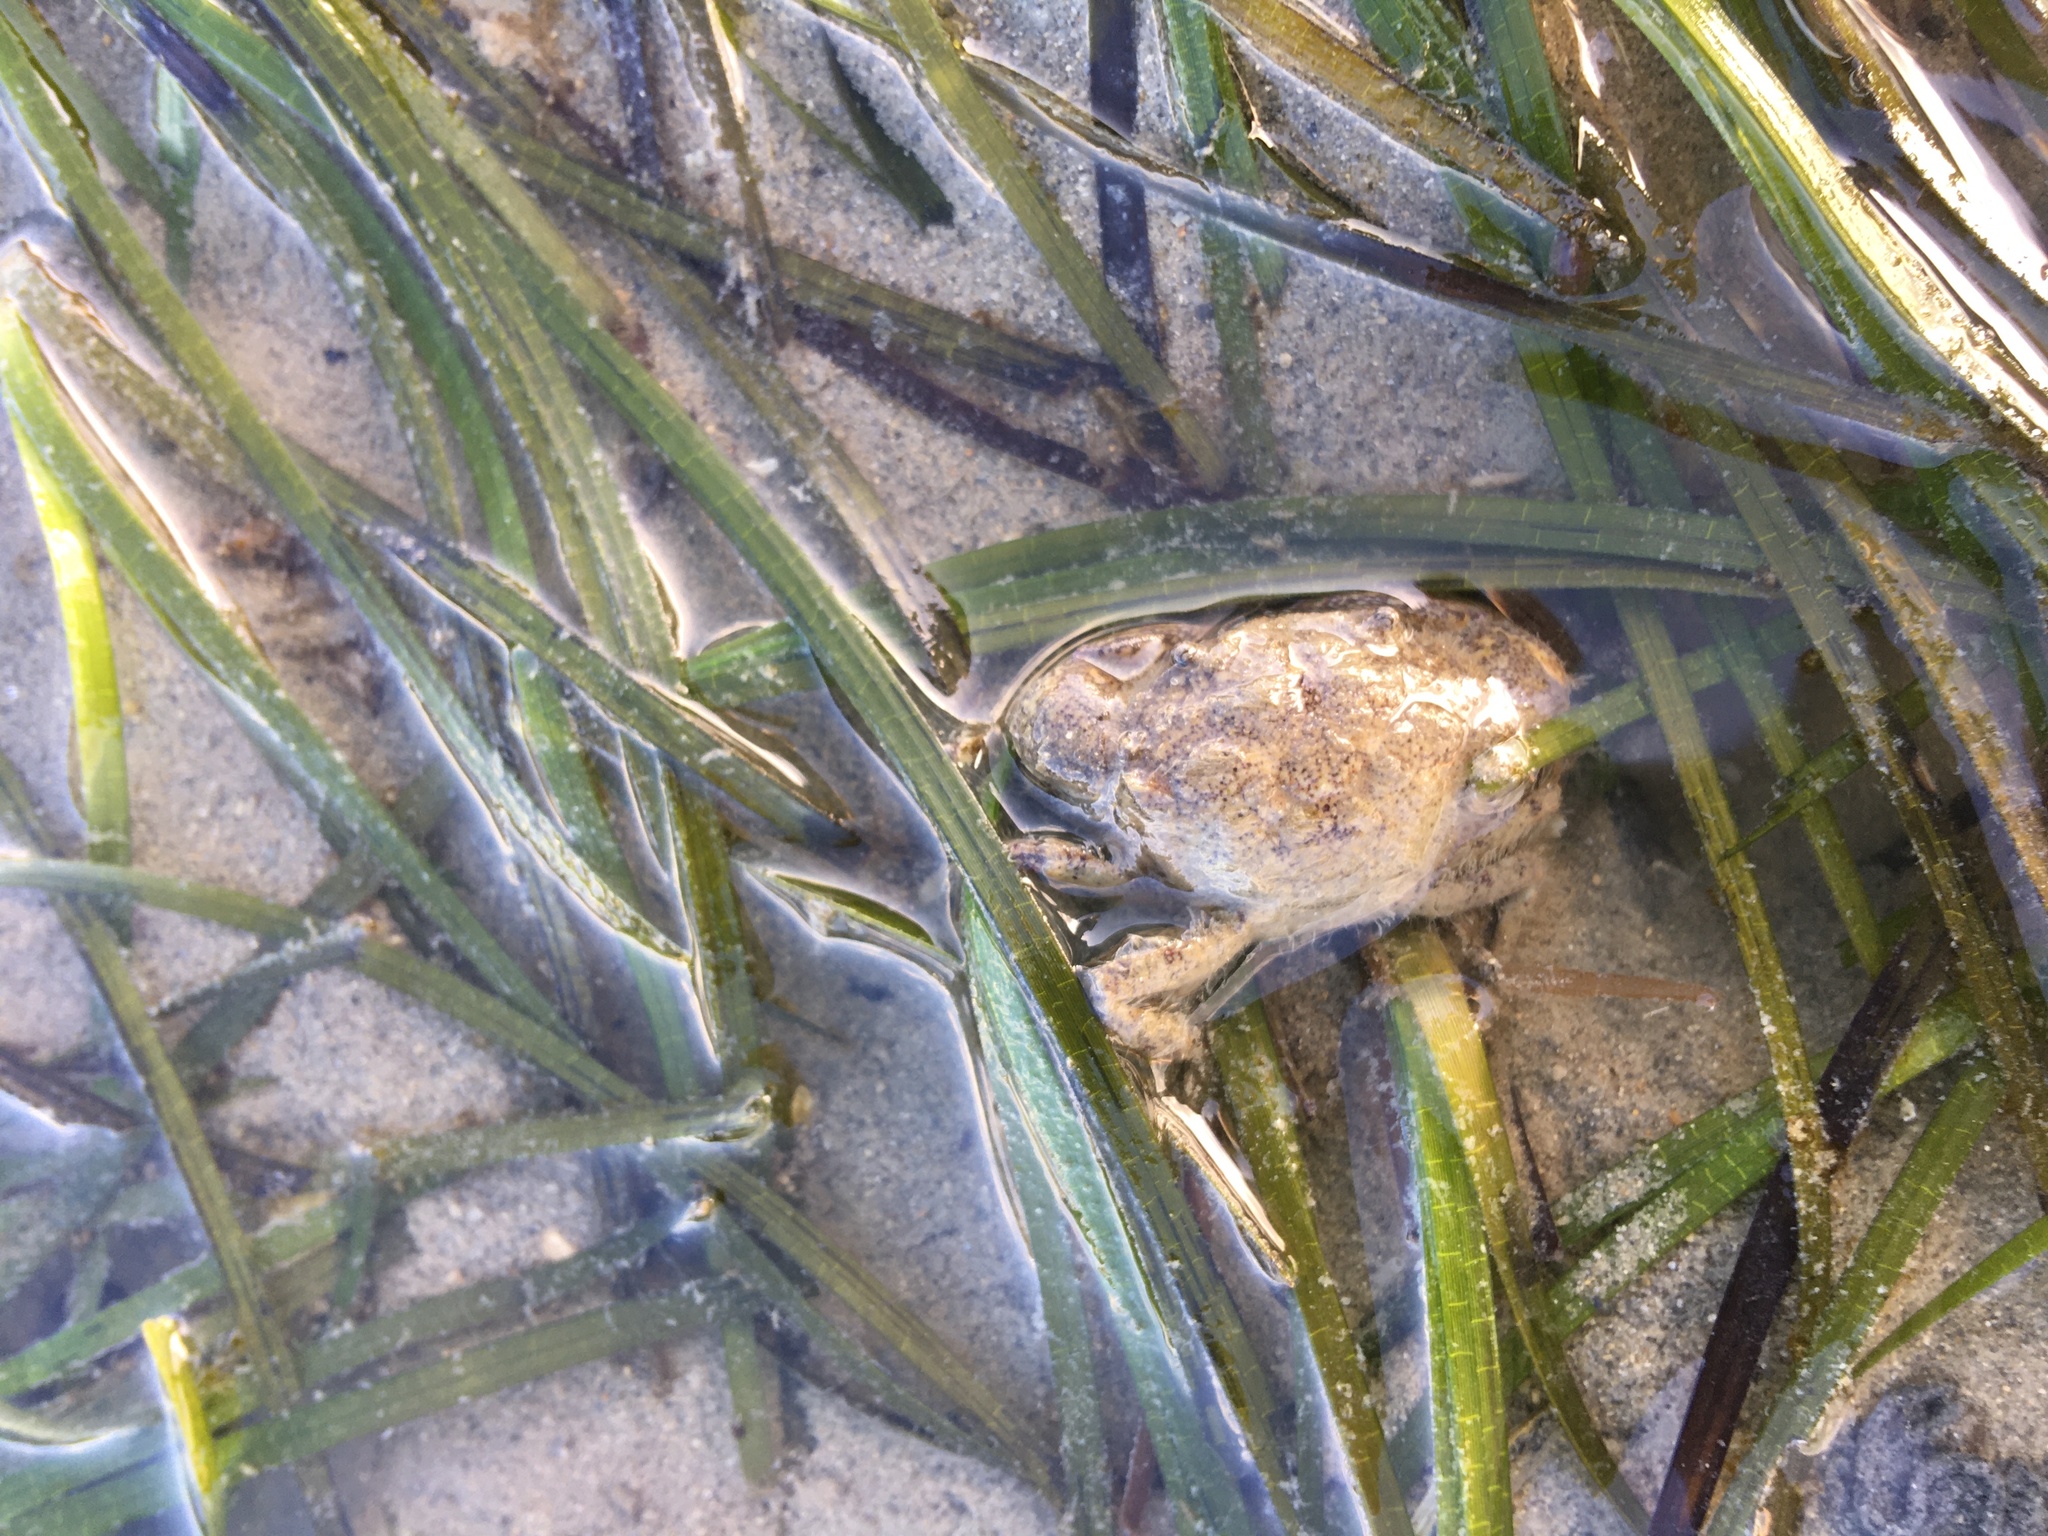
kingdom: Animalia
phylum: Arthropoda
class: Malacostraca
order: Decapoda
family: Pilumnidae
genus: Pilumnopeus
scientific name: Pilumnopeus serratifrons
